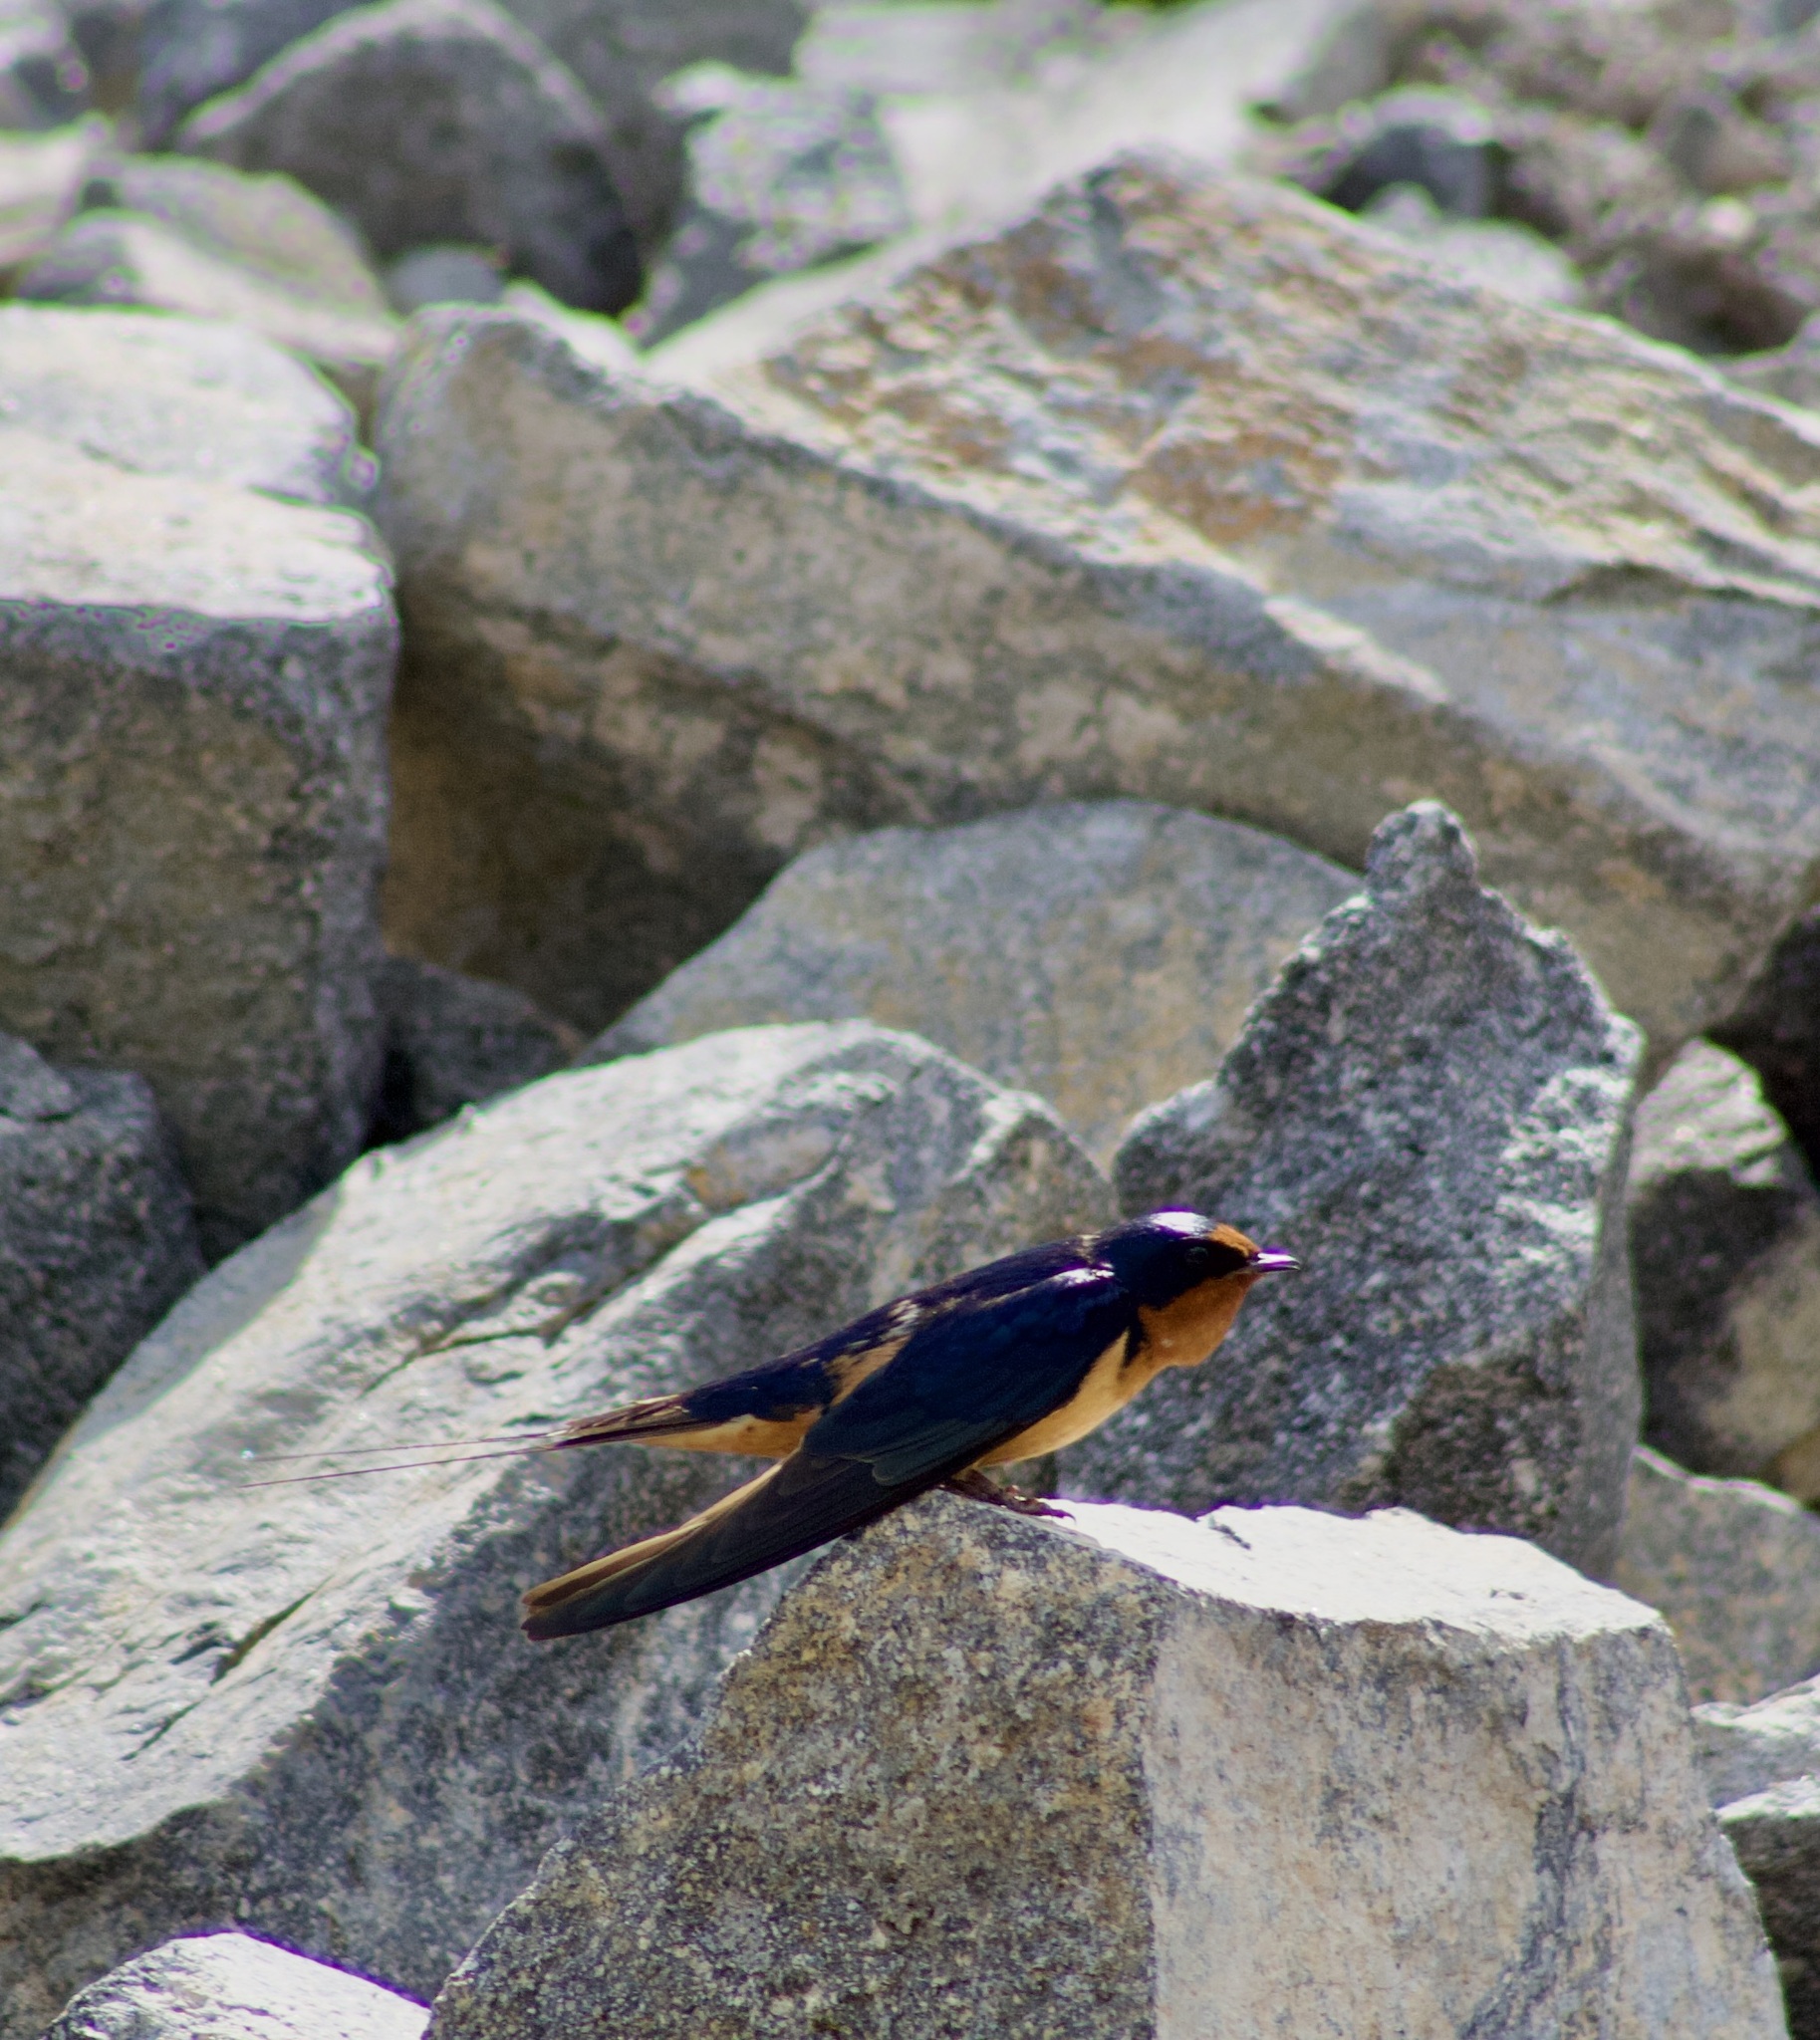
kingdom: Animalia
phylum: Chordata
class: Aves
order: Passeriformes
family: Hirundinidae
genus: Hirundo
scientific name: Hirundo rustica
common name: Barn swallow
